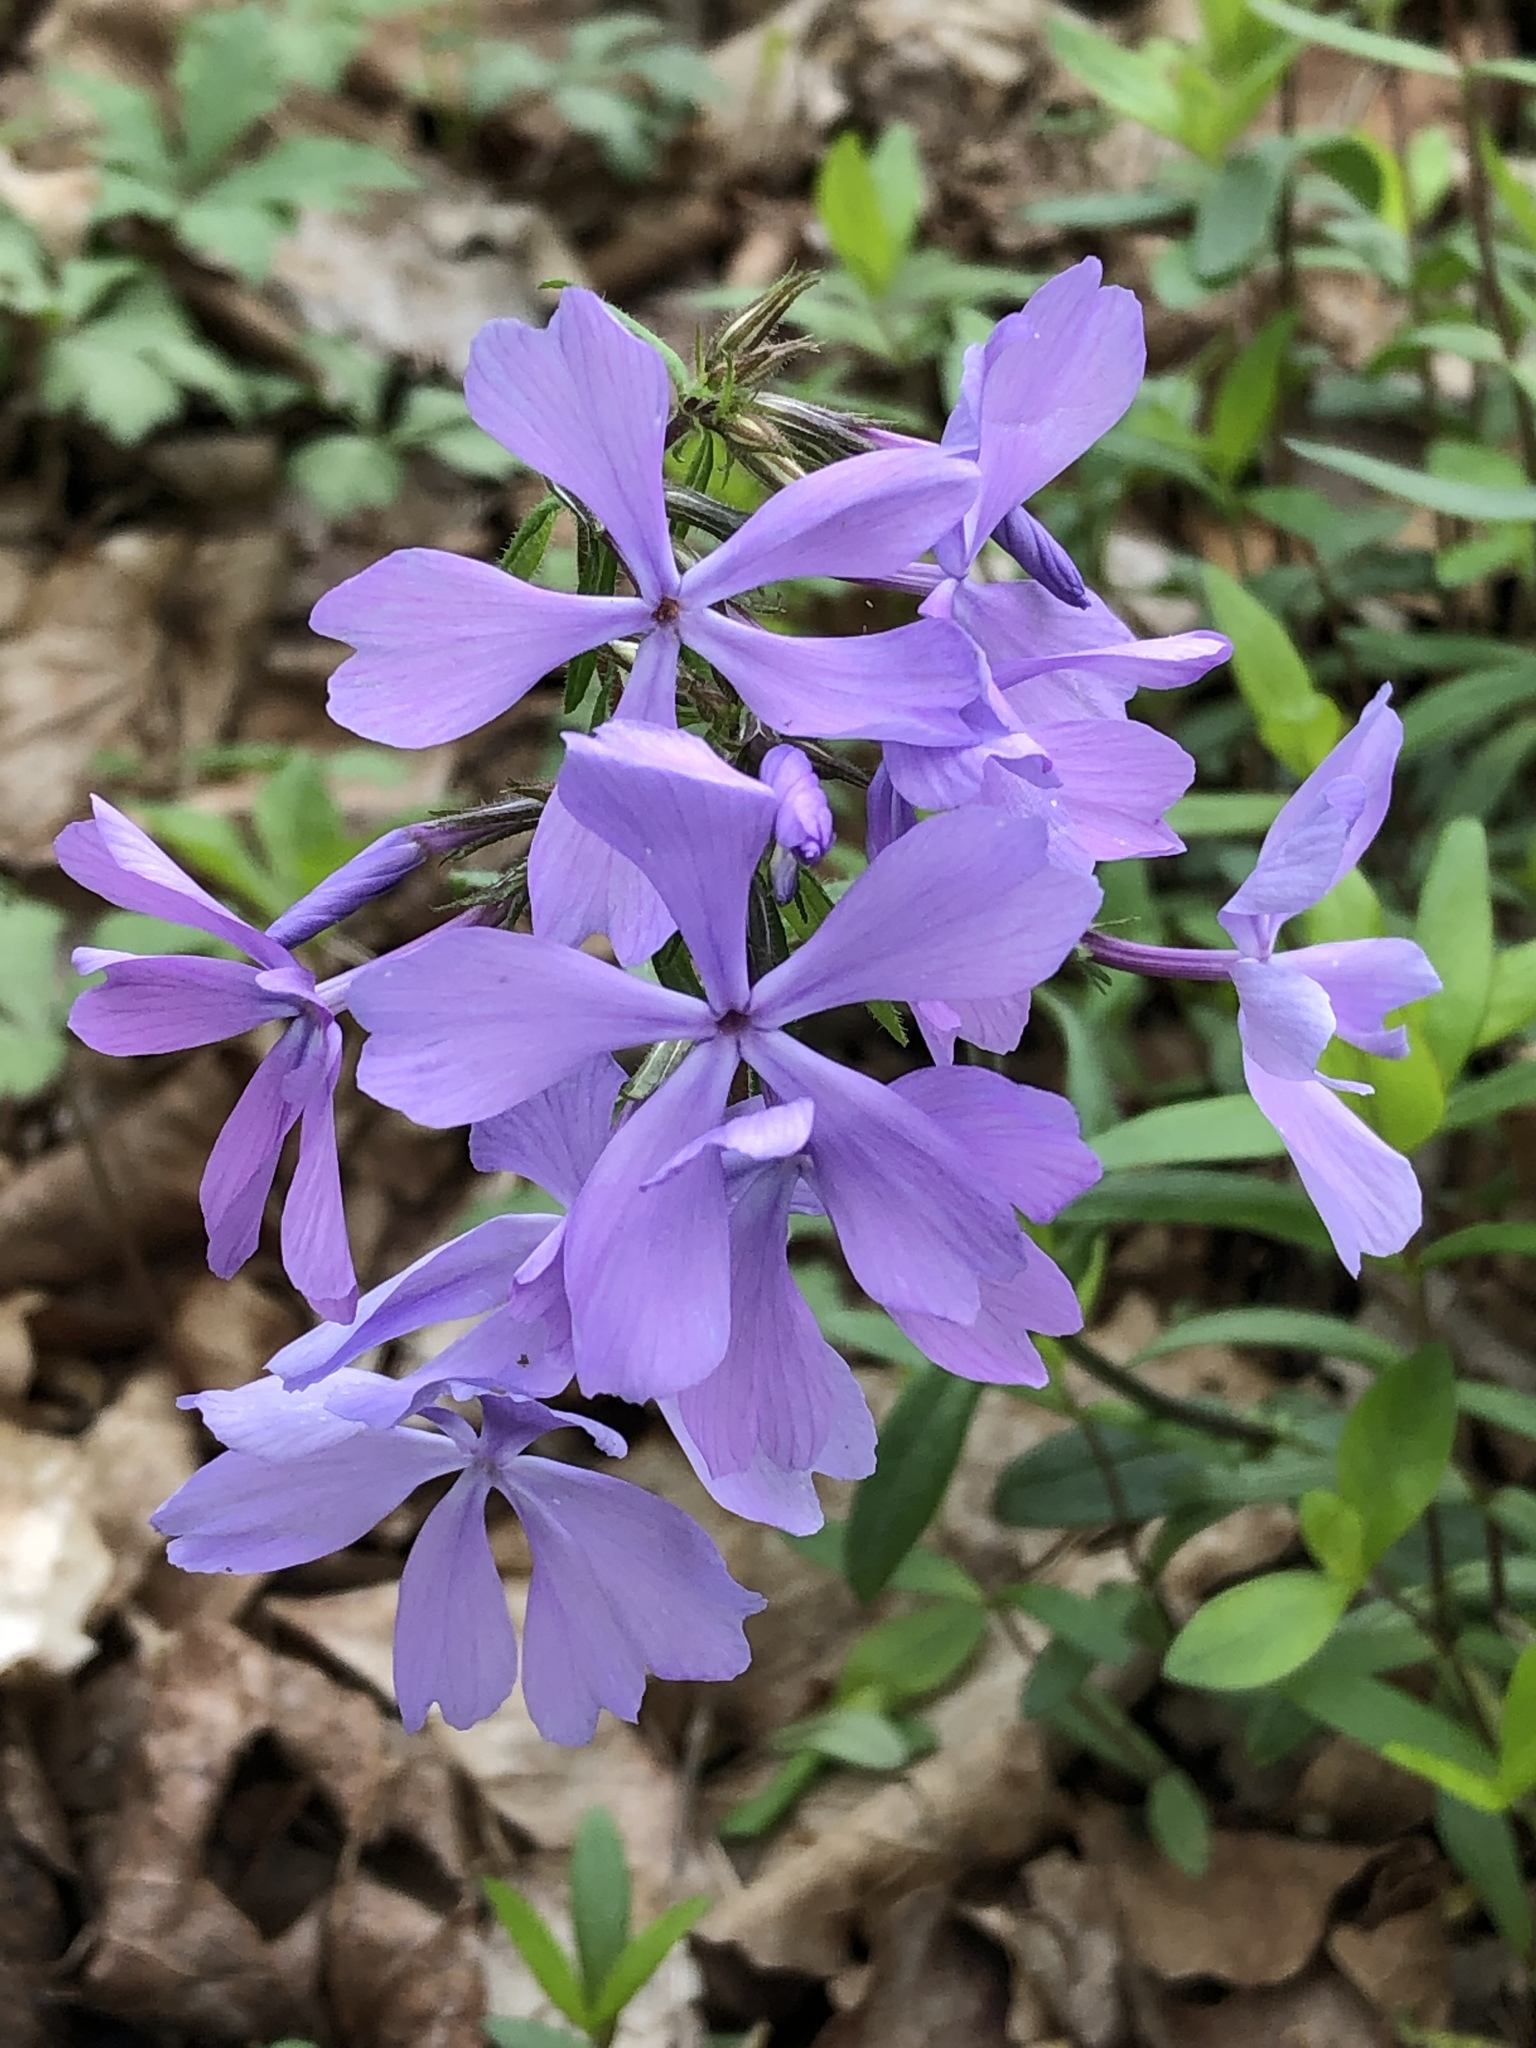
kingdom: Plantae
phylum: Tracheophyta
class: Magnoliopsida
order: Ericales
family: Polemoniaceae
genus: Phlox
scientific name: Phlox divaricata
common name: Blue phlox
